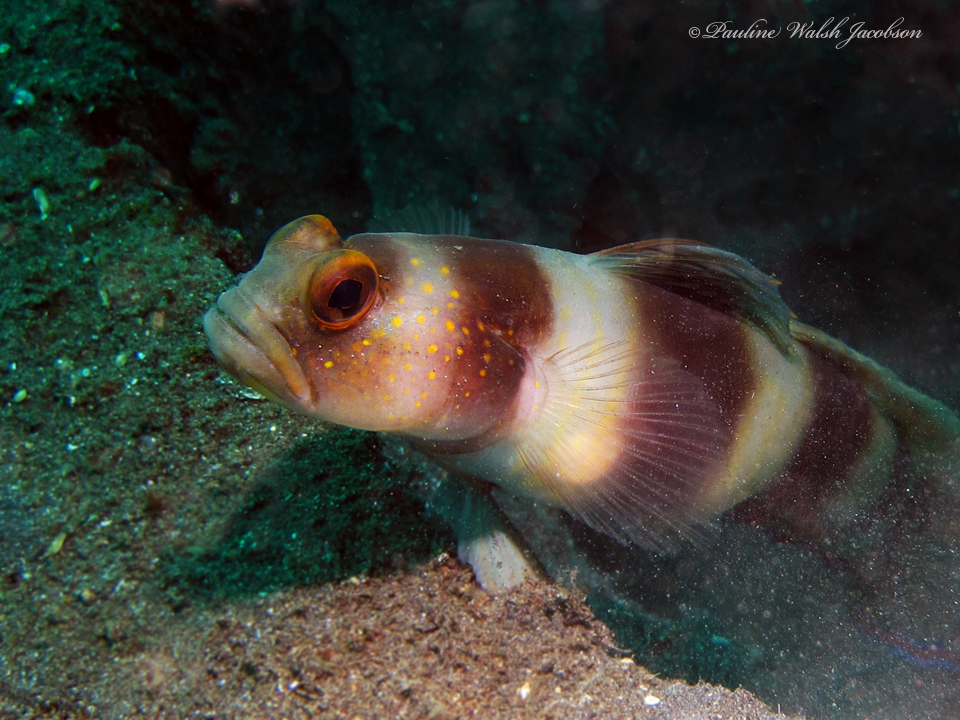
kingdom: Animalia
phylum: Chordata
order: Perciformes
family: Gobiidae
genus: Amblyeleotris
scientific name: Amblyeleotris fontanesii
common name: Giant shrimpgoby
